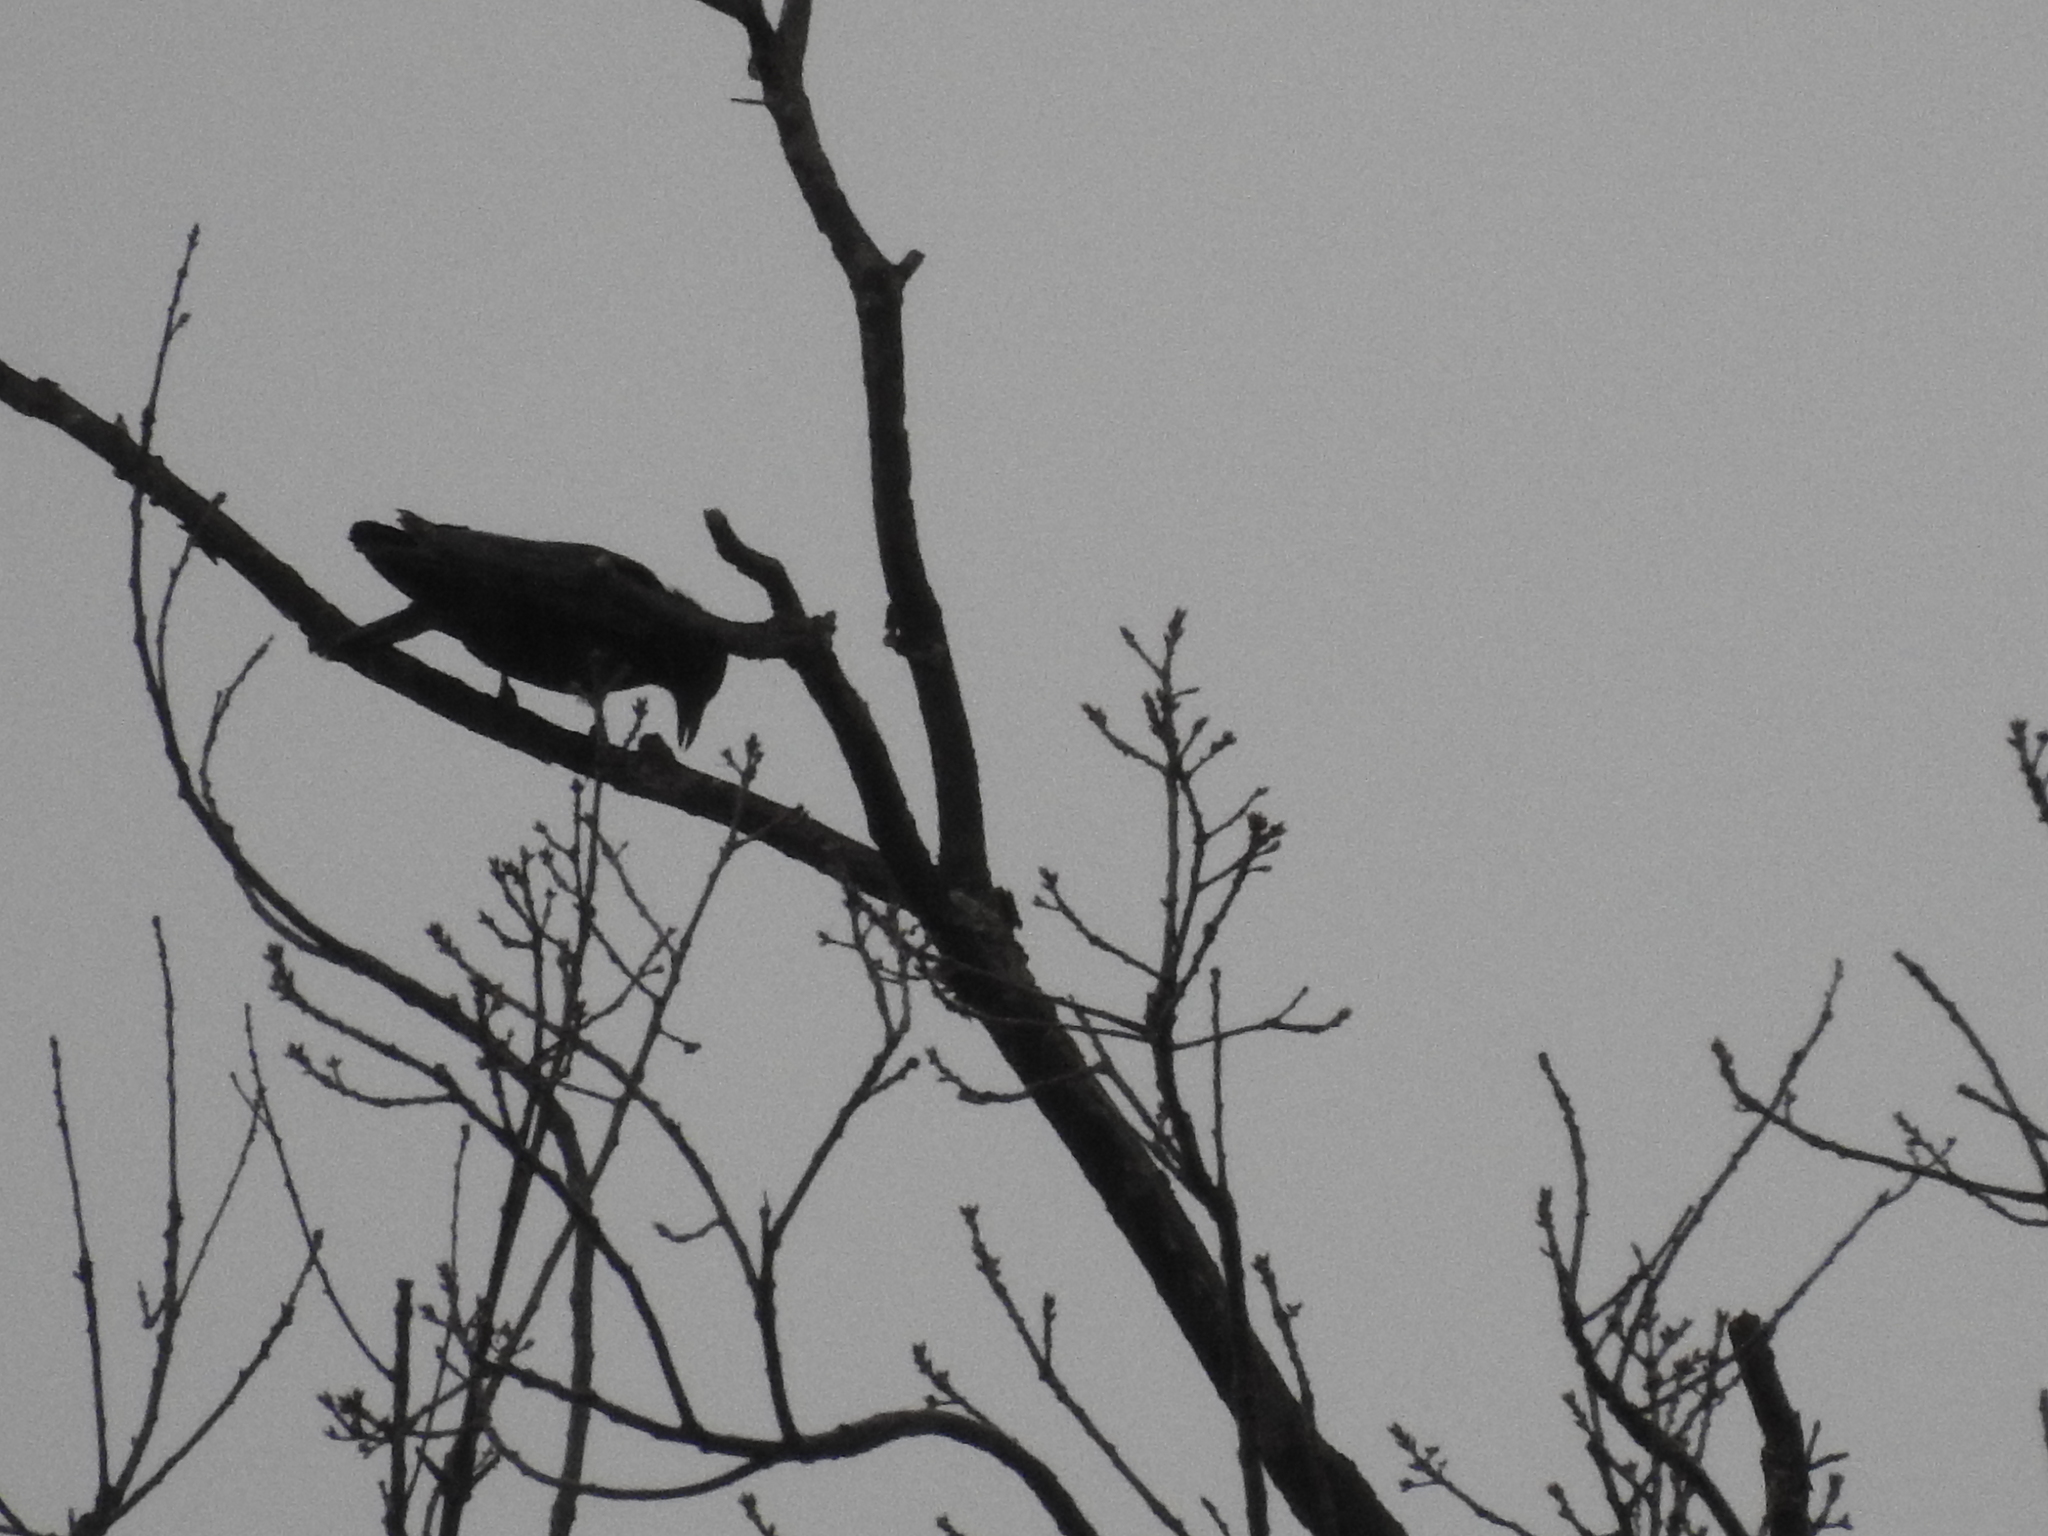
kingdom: Animalia
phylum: Chordata
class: Aves
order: Passeriformes
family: Corvidae
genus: Corvus
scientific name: Corvus brachyrhynchos
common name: American crow
